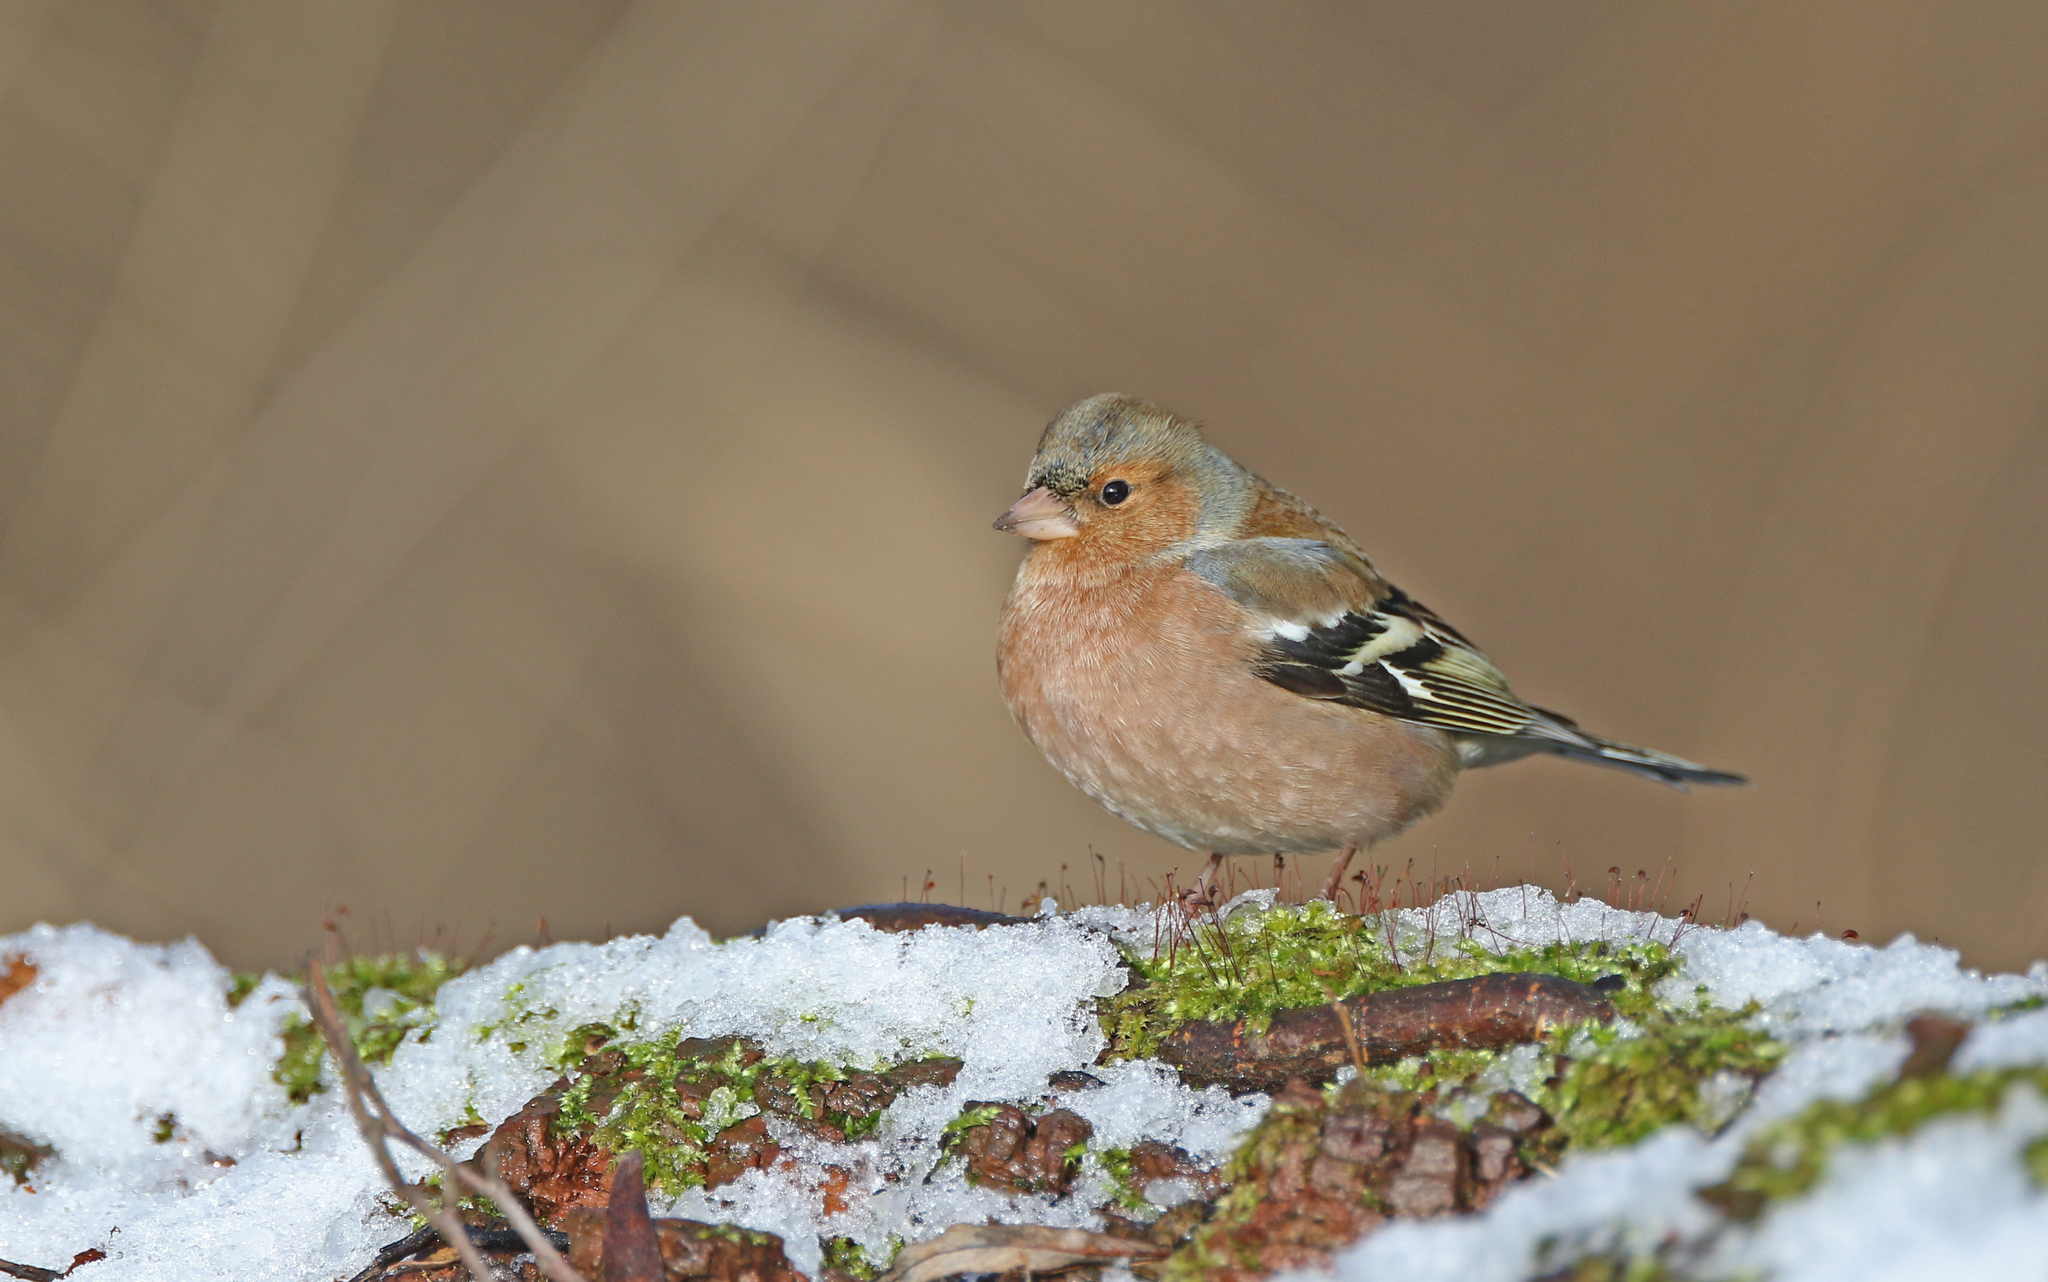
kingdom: Animalia
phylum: Chordata
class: Aves
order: Passeriformes
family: Fringillidae
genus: Fringilla
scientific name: Fringilla coelebs
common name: Common chaffinch
